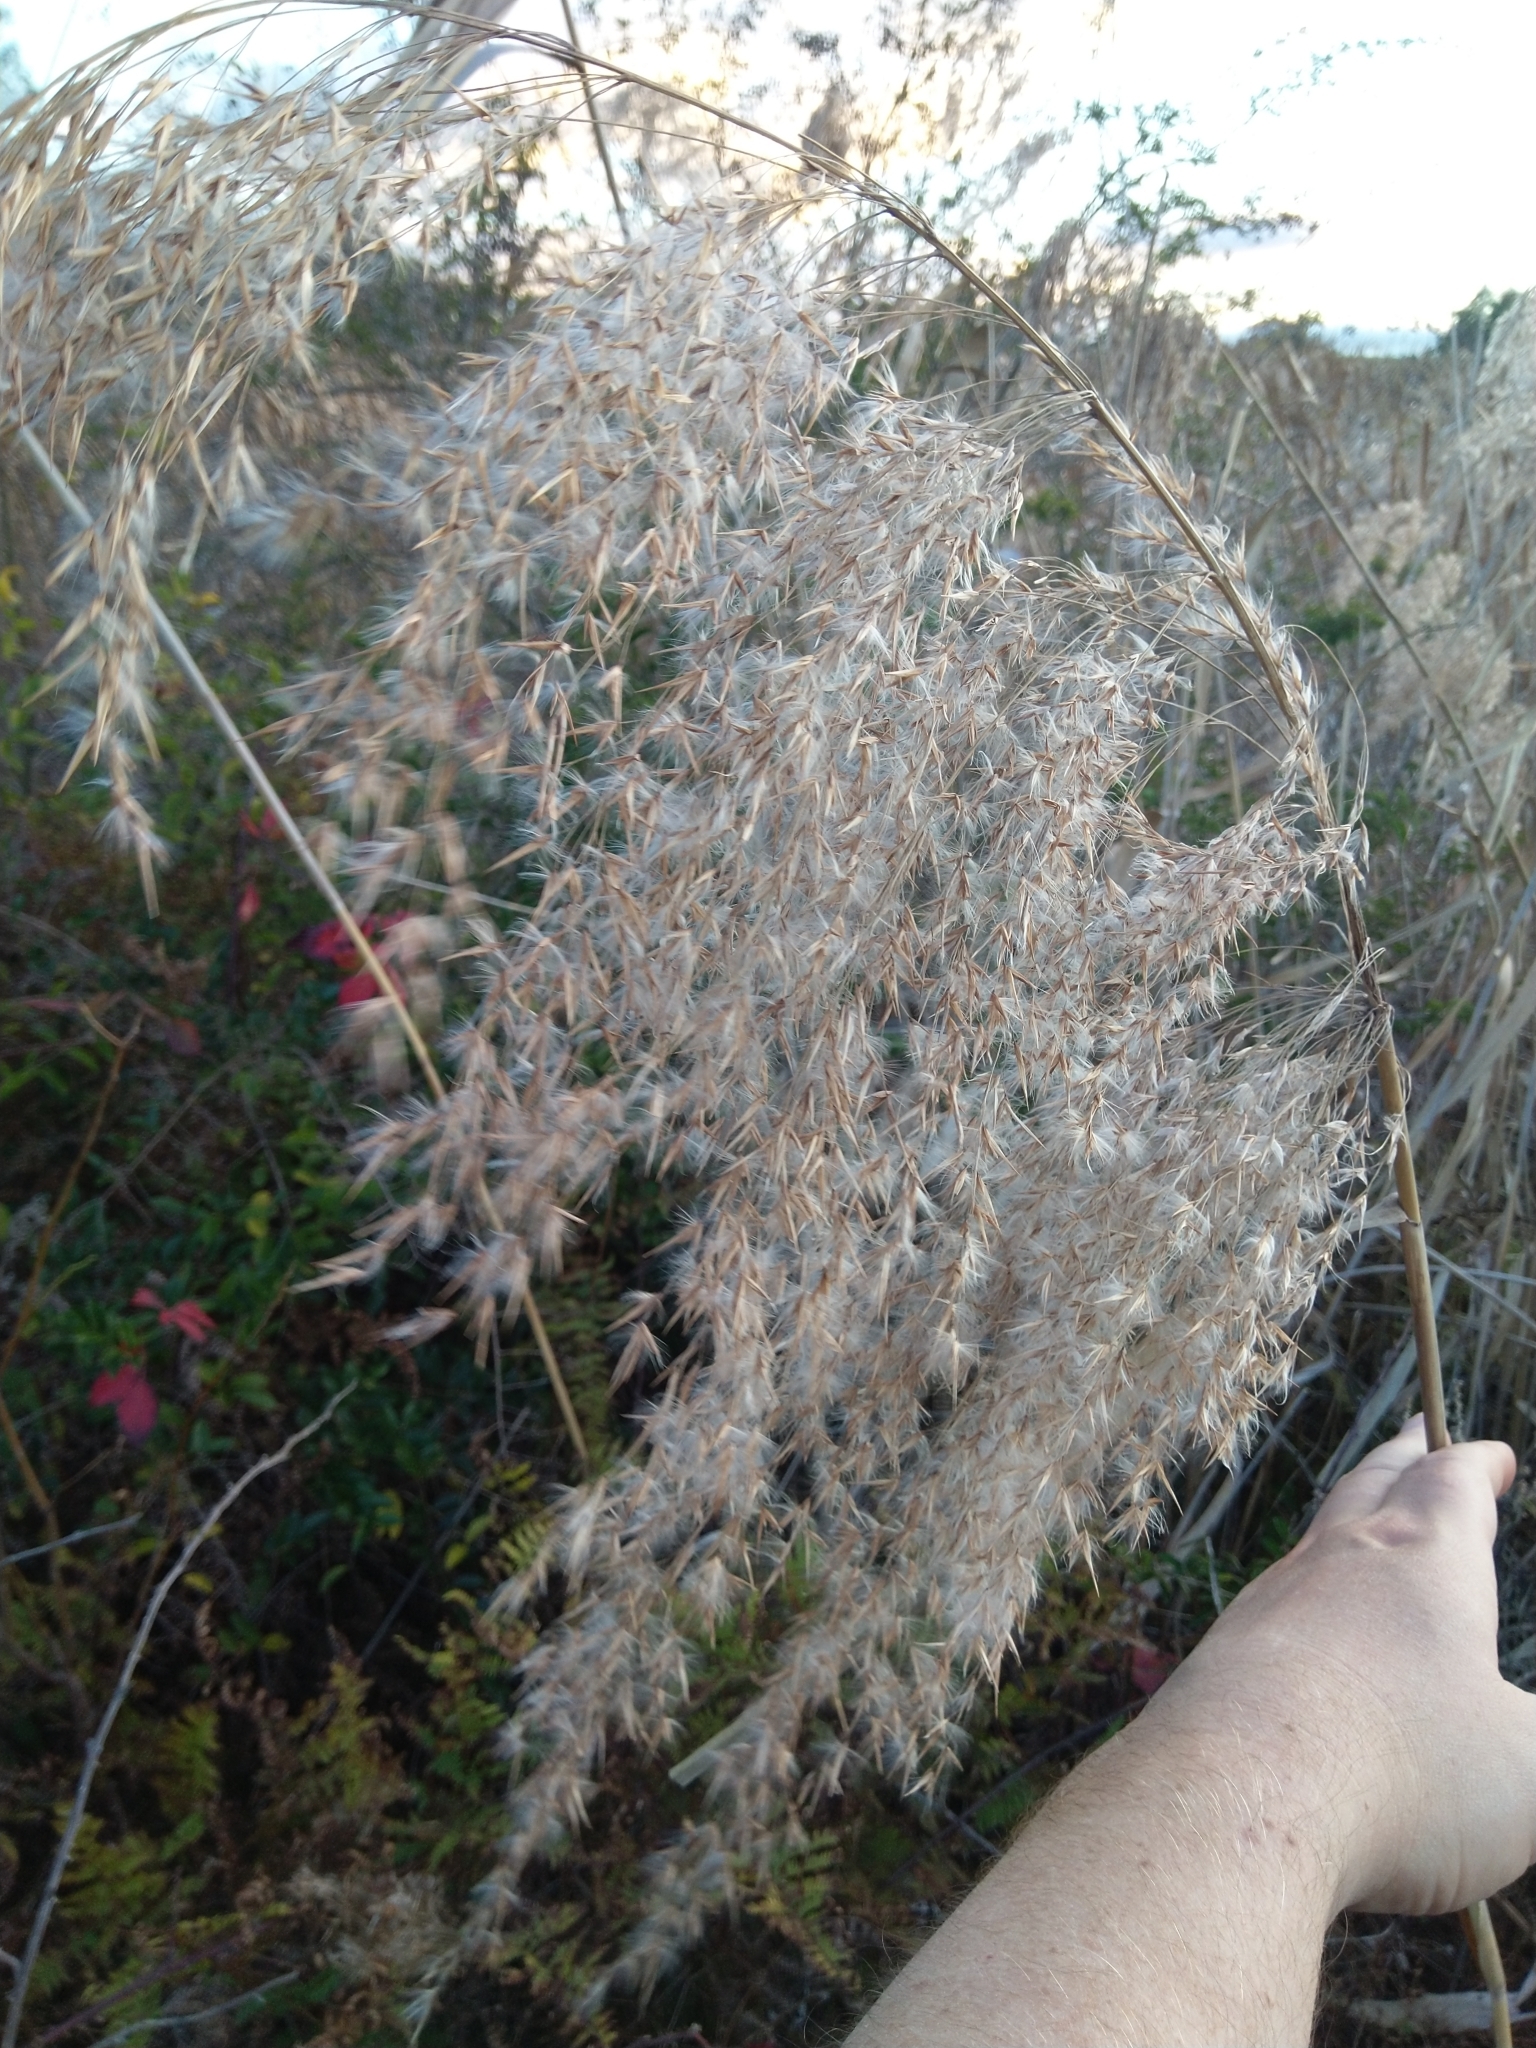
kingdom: Plantae
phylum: Tracheophyta
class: Liliopsida
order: Poales
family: Poaceae
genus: Phragmites
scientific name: Phragmites australis
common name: Common reed
